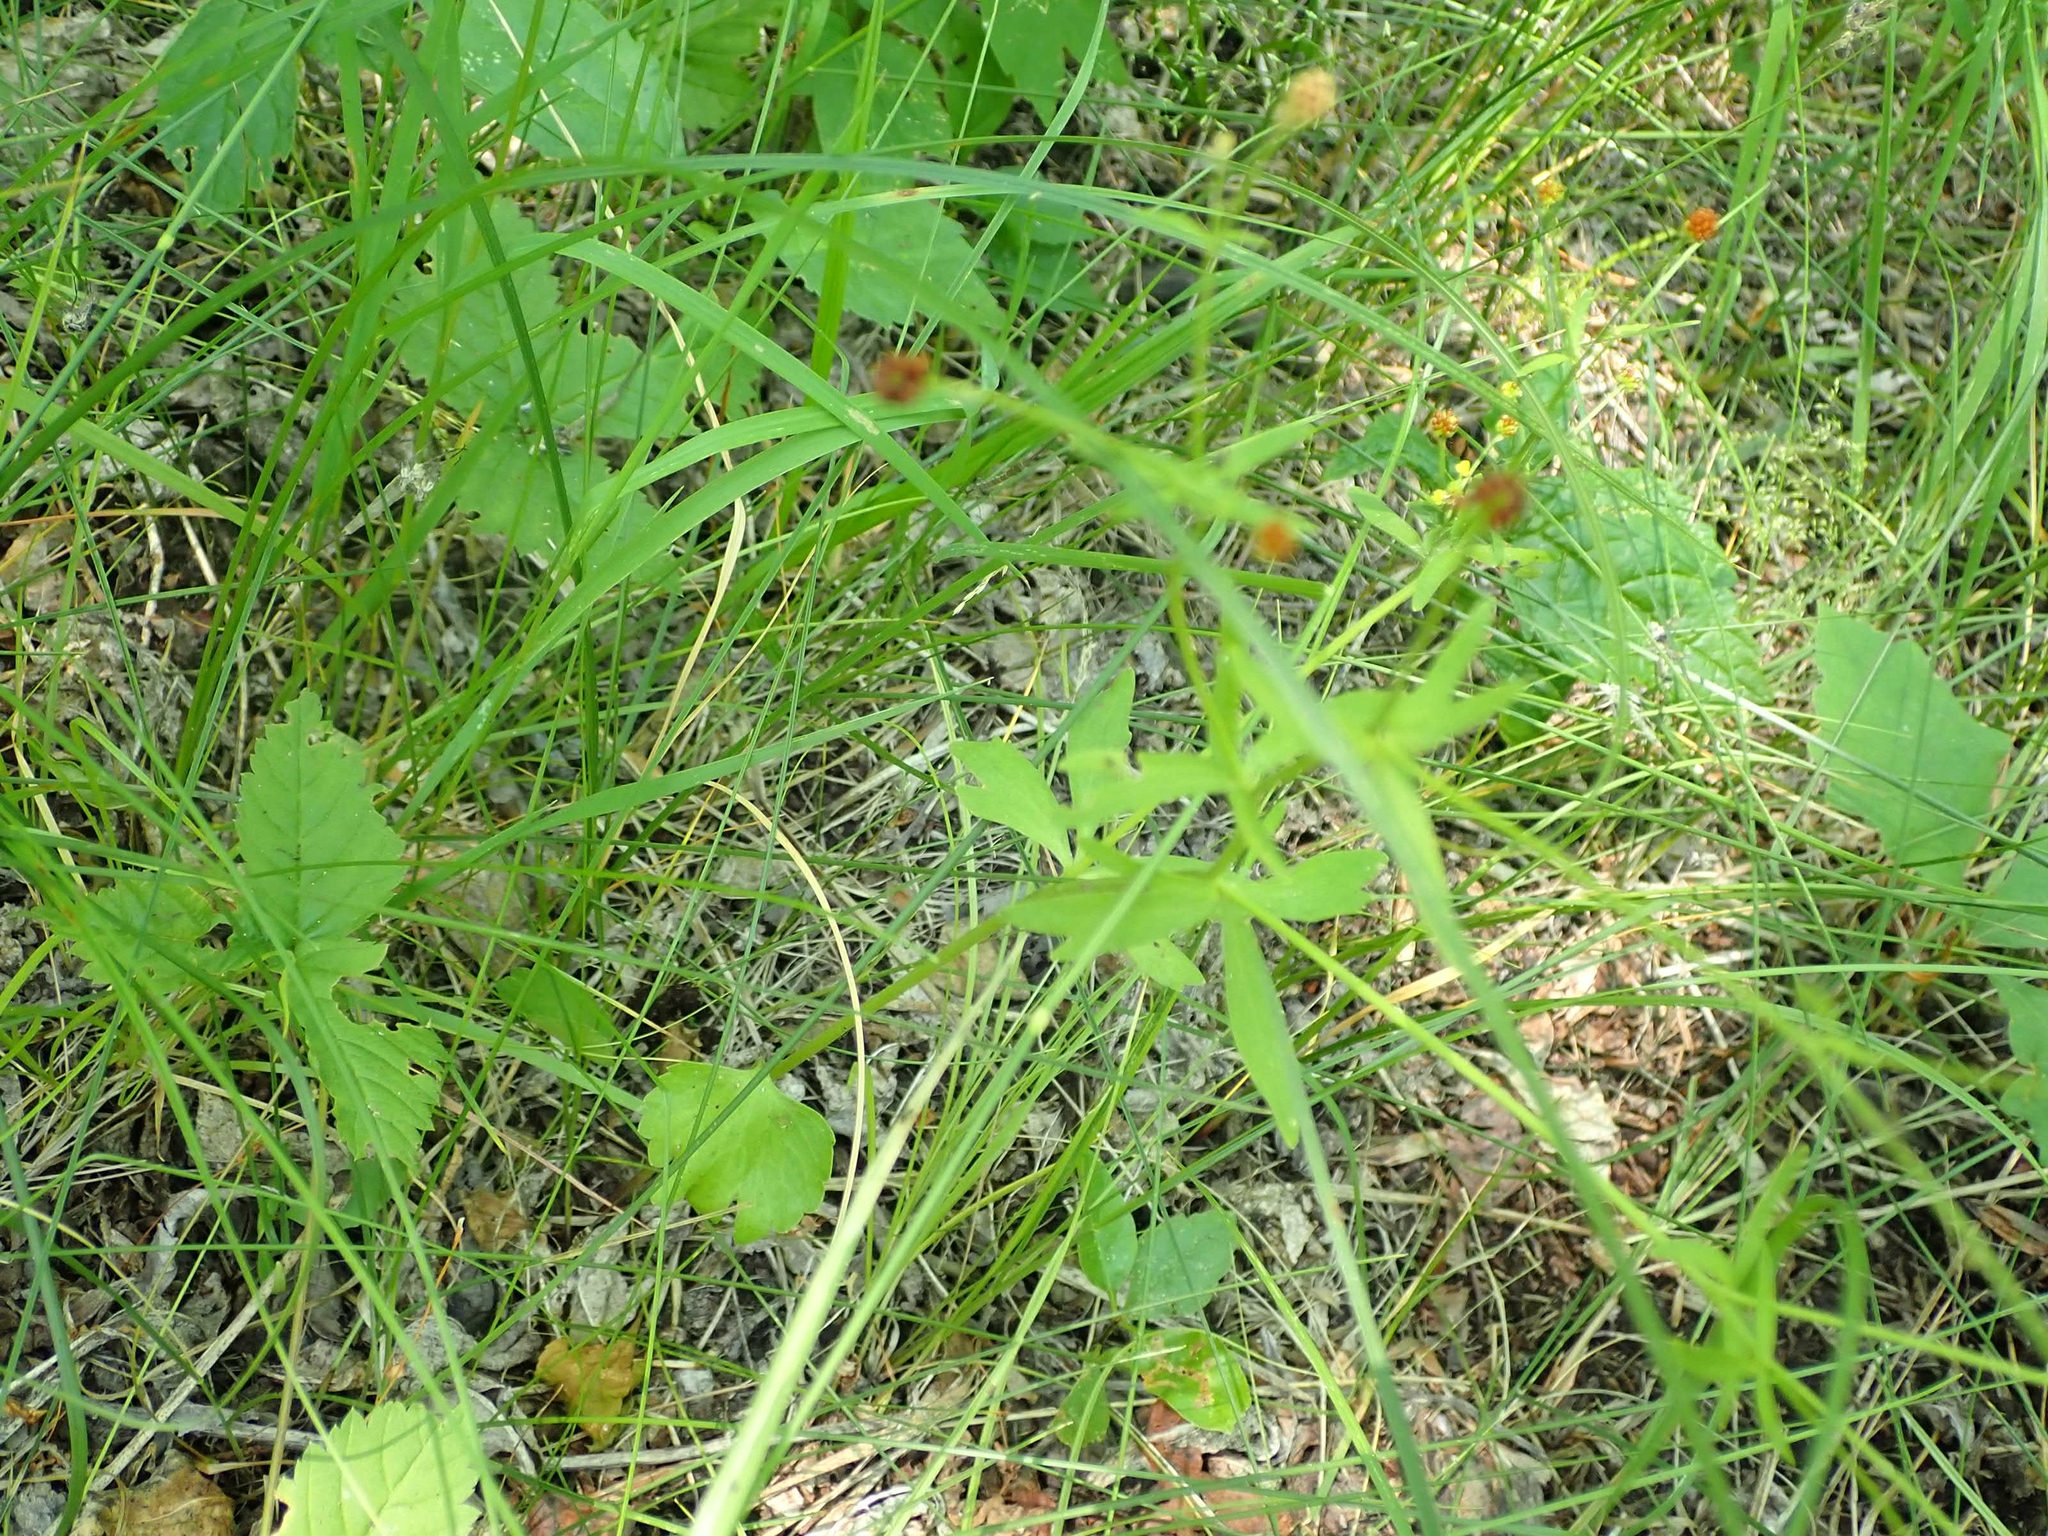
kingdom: Plantae
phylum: Tracheophyta
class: Magnoliopsida
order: Ranunculales
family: Ranunculaceae
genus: Ranunculus
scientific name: Ranunculus abortivus
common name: Early wood buttercup
